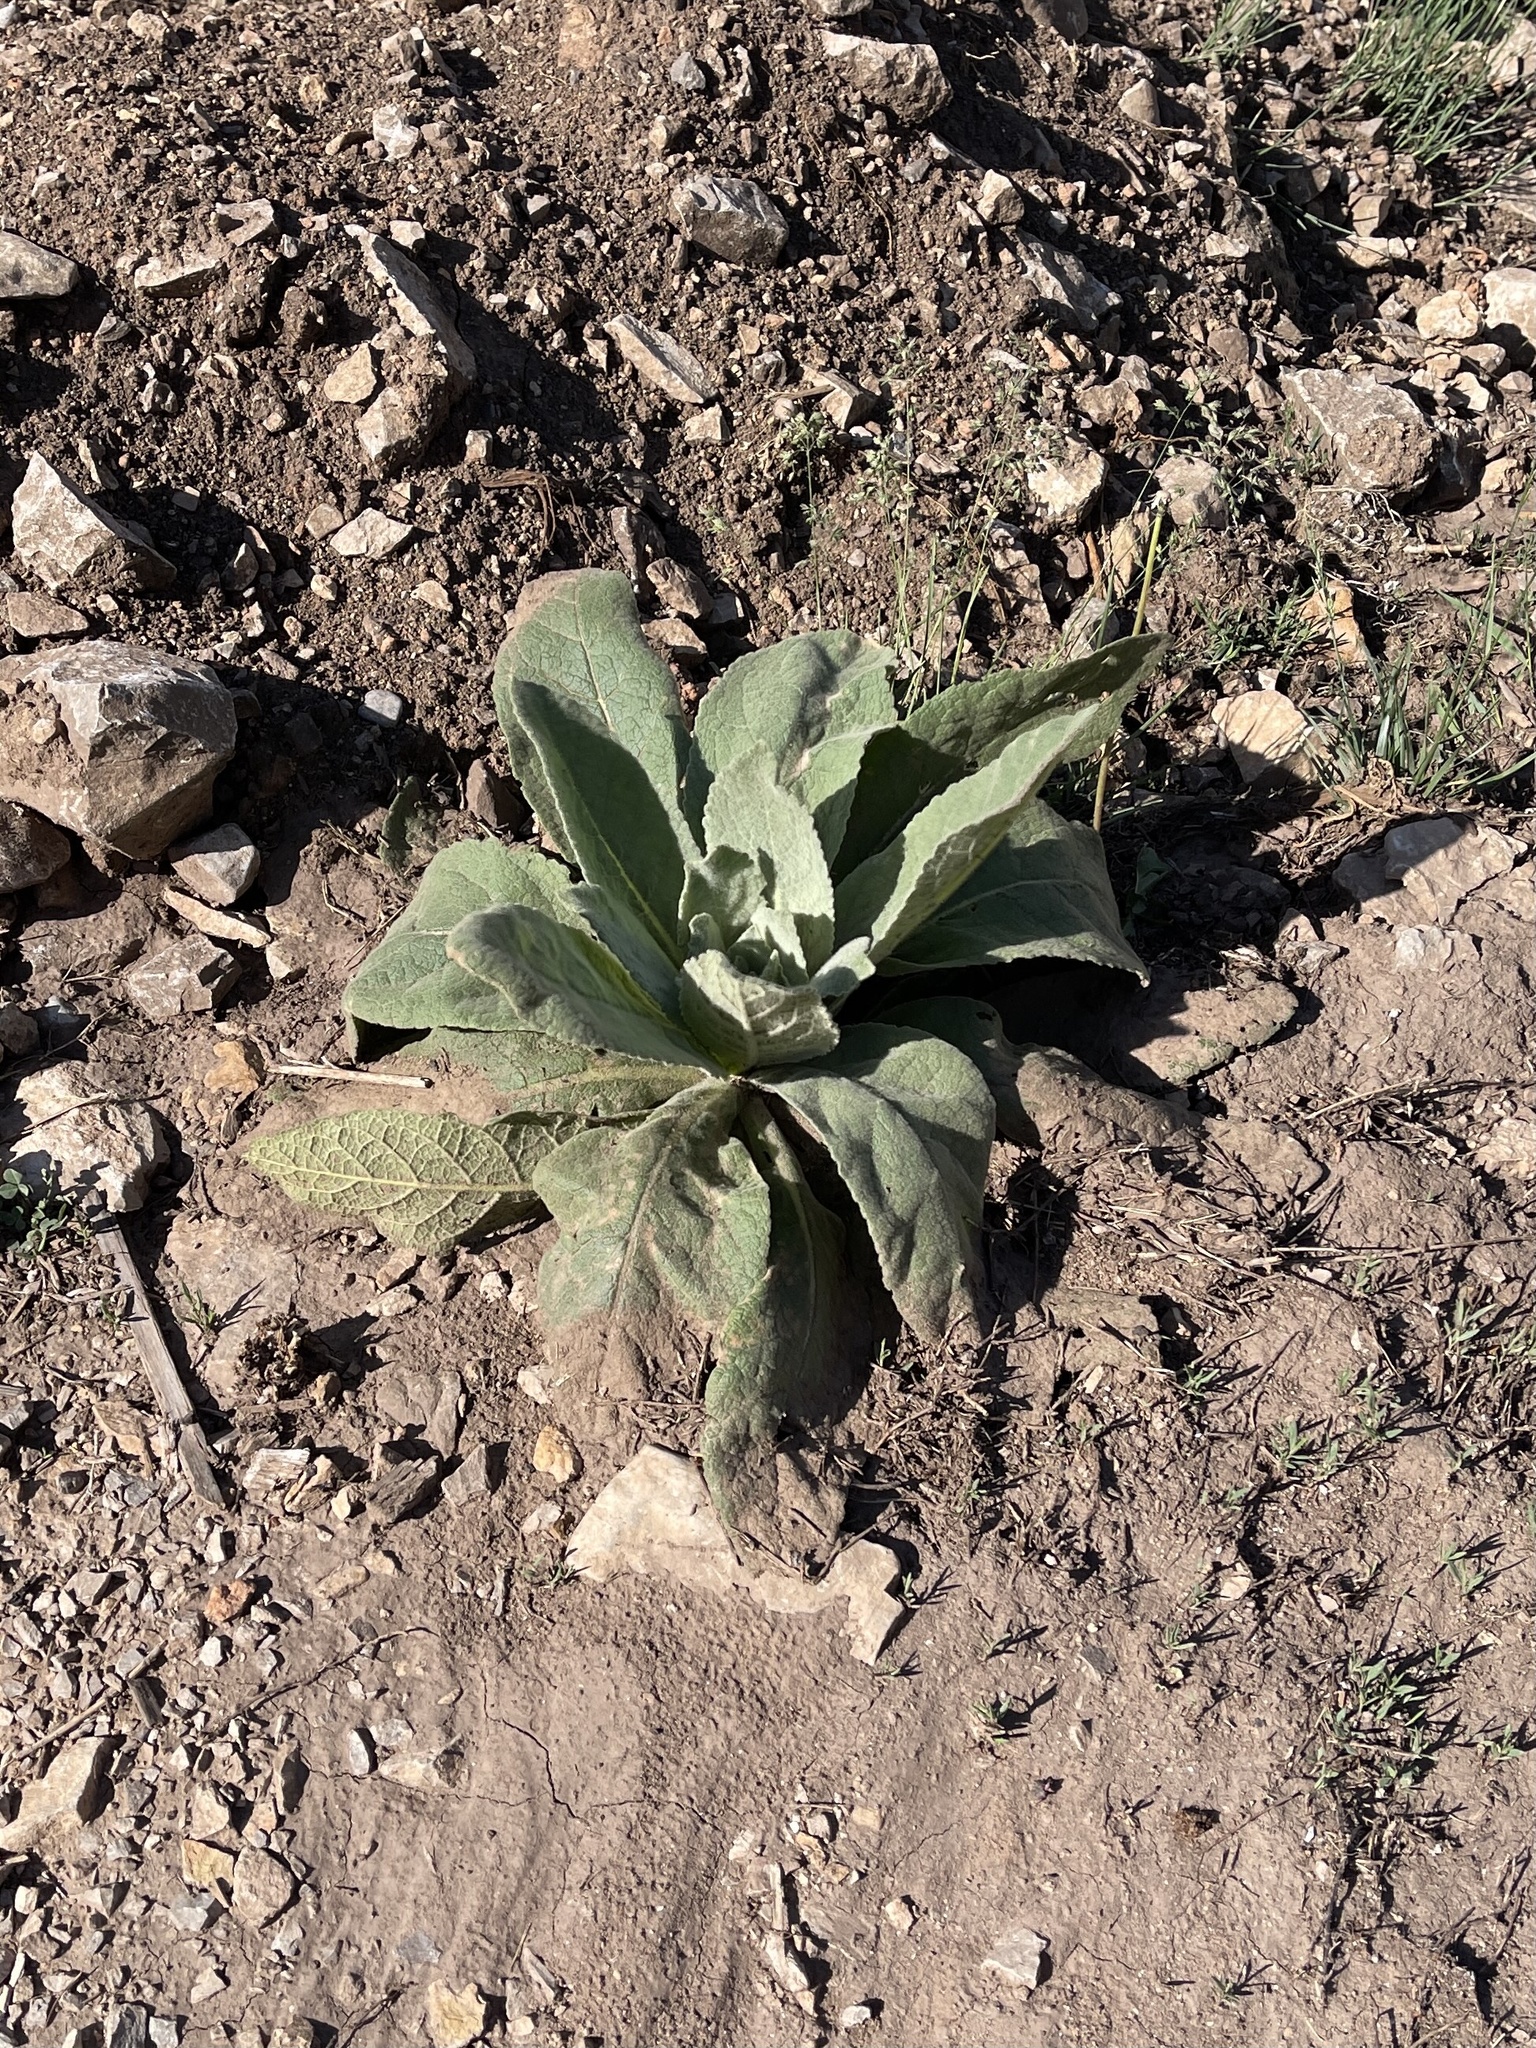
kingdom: Plantae
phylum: Tracheophyta
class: Magnoliopsida
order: Lamiales
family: Scrophulariaceae
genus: Verbascum
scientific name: Verbascum thapsus
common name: Common mullein
